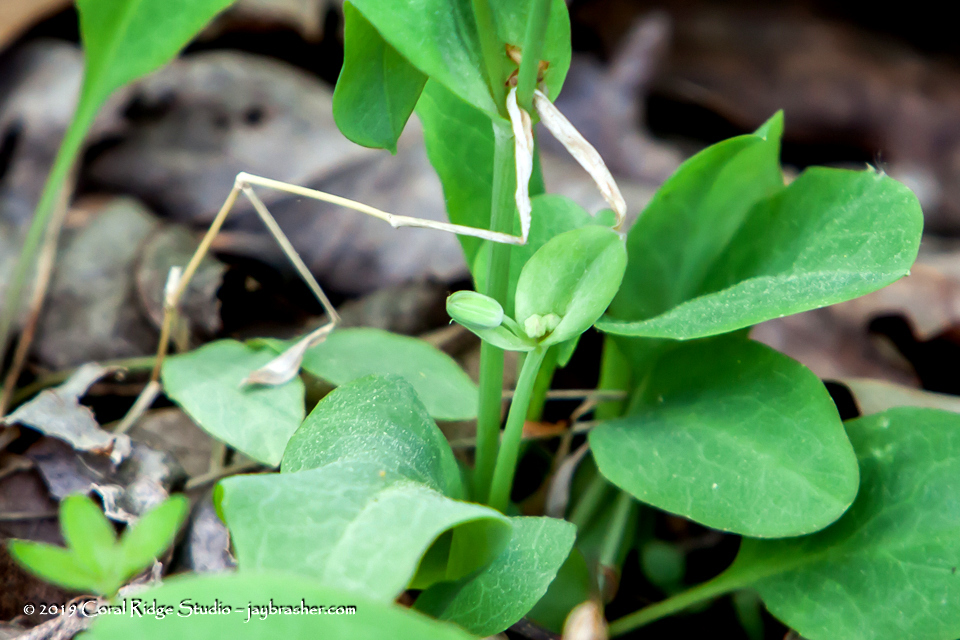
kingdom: Plantae
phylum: Tracheophyta
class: Magnoliopsida
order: Asterales
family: Asteraceae
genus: Krigia
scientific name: Krigia biflora
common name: Orange dwarf-dandelion
